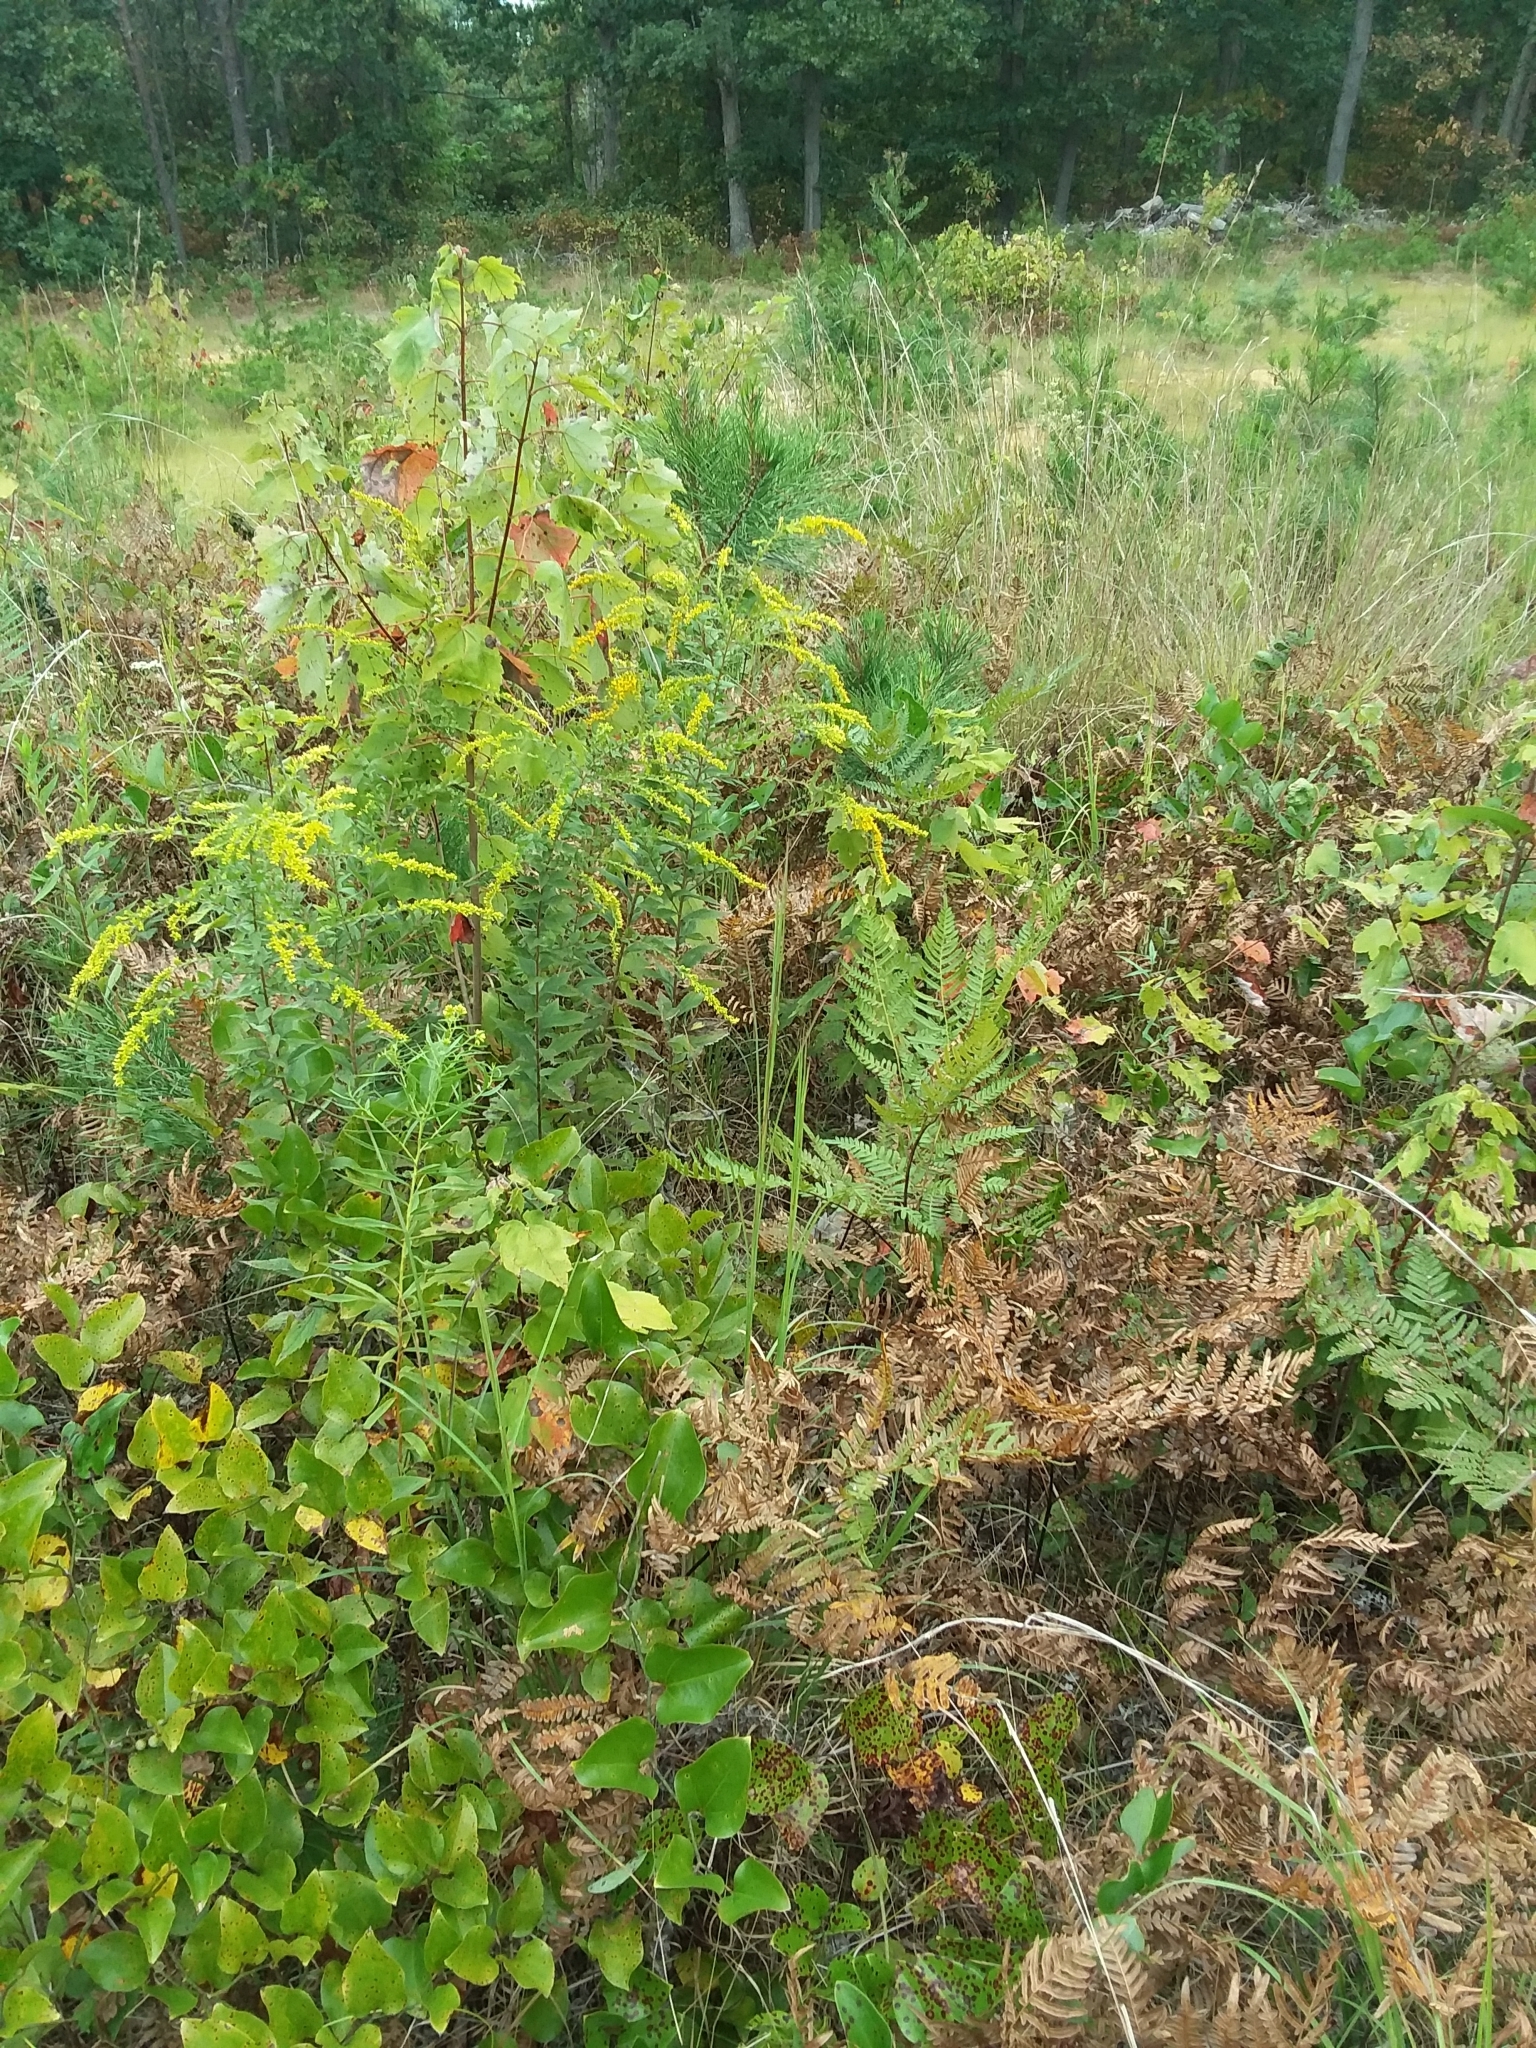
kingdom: Plantae
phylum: Tracheophyta
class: Magnoliopsida
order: Asterales
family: Asteraceae
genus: Solidago
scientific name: Solidago rugosa
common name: Rough-stemmed goldenrod
